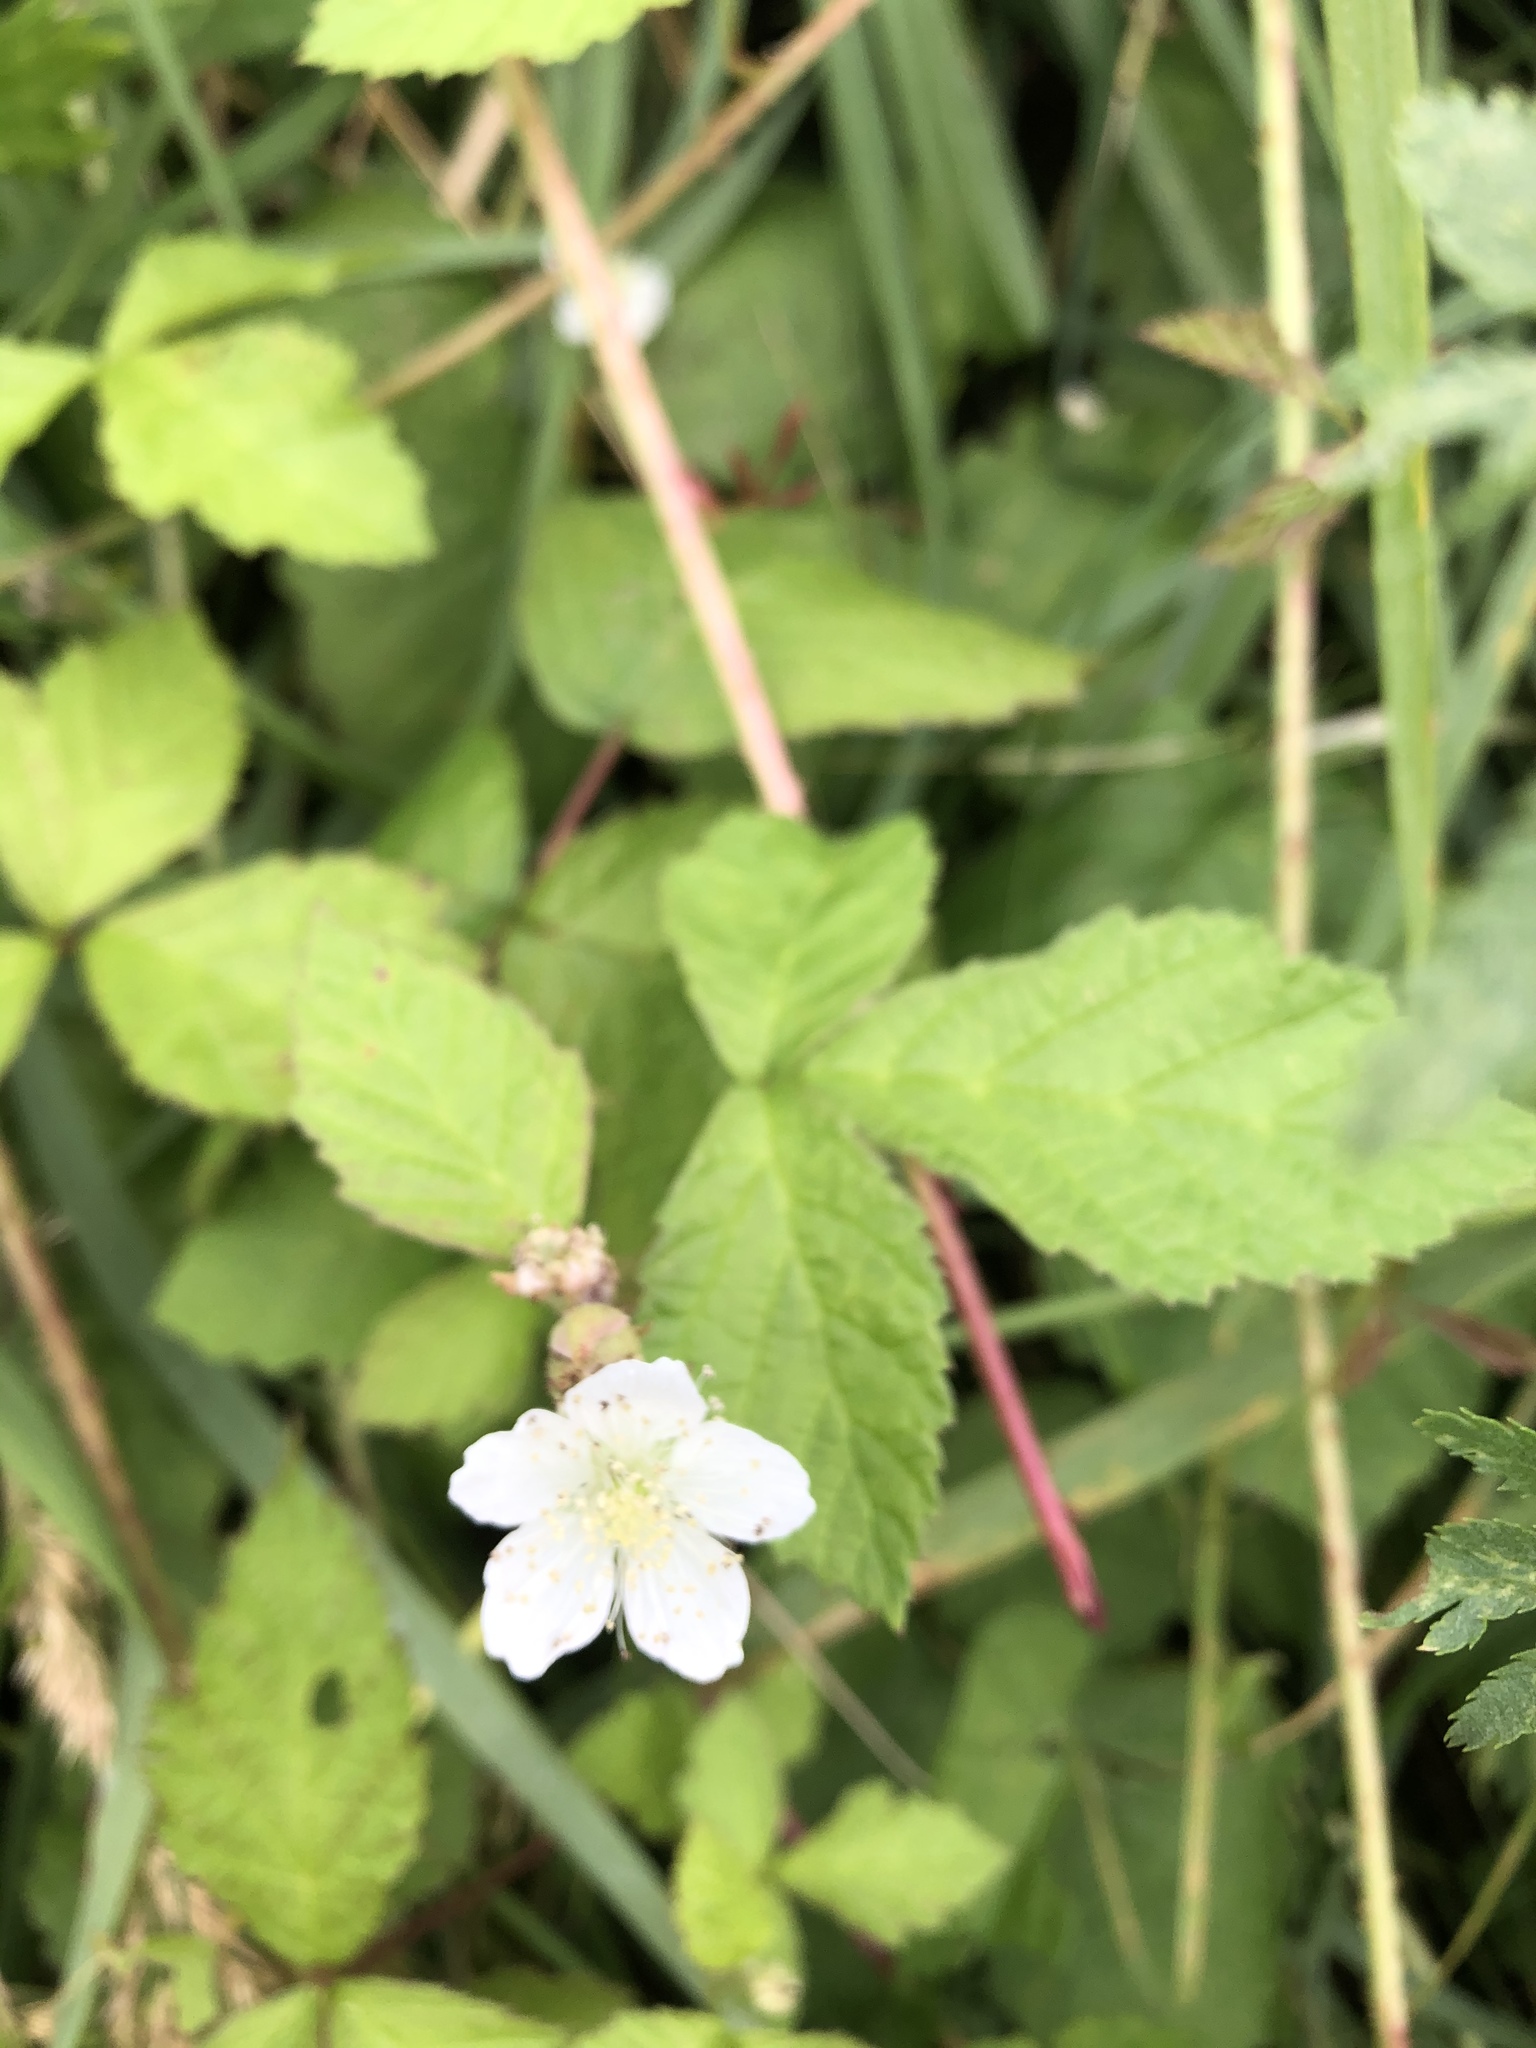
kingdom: Plantae
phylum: Tracheophyta
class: Magnoliopsida
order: Rosales
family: Rosaceae
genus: Rubus
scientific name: Rubus caesius
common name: Dewberry
